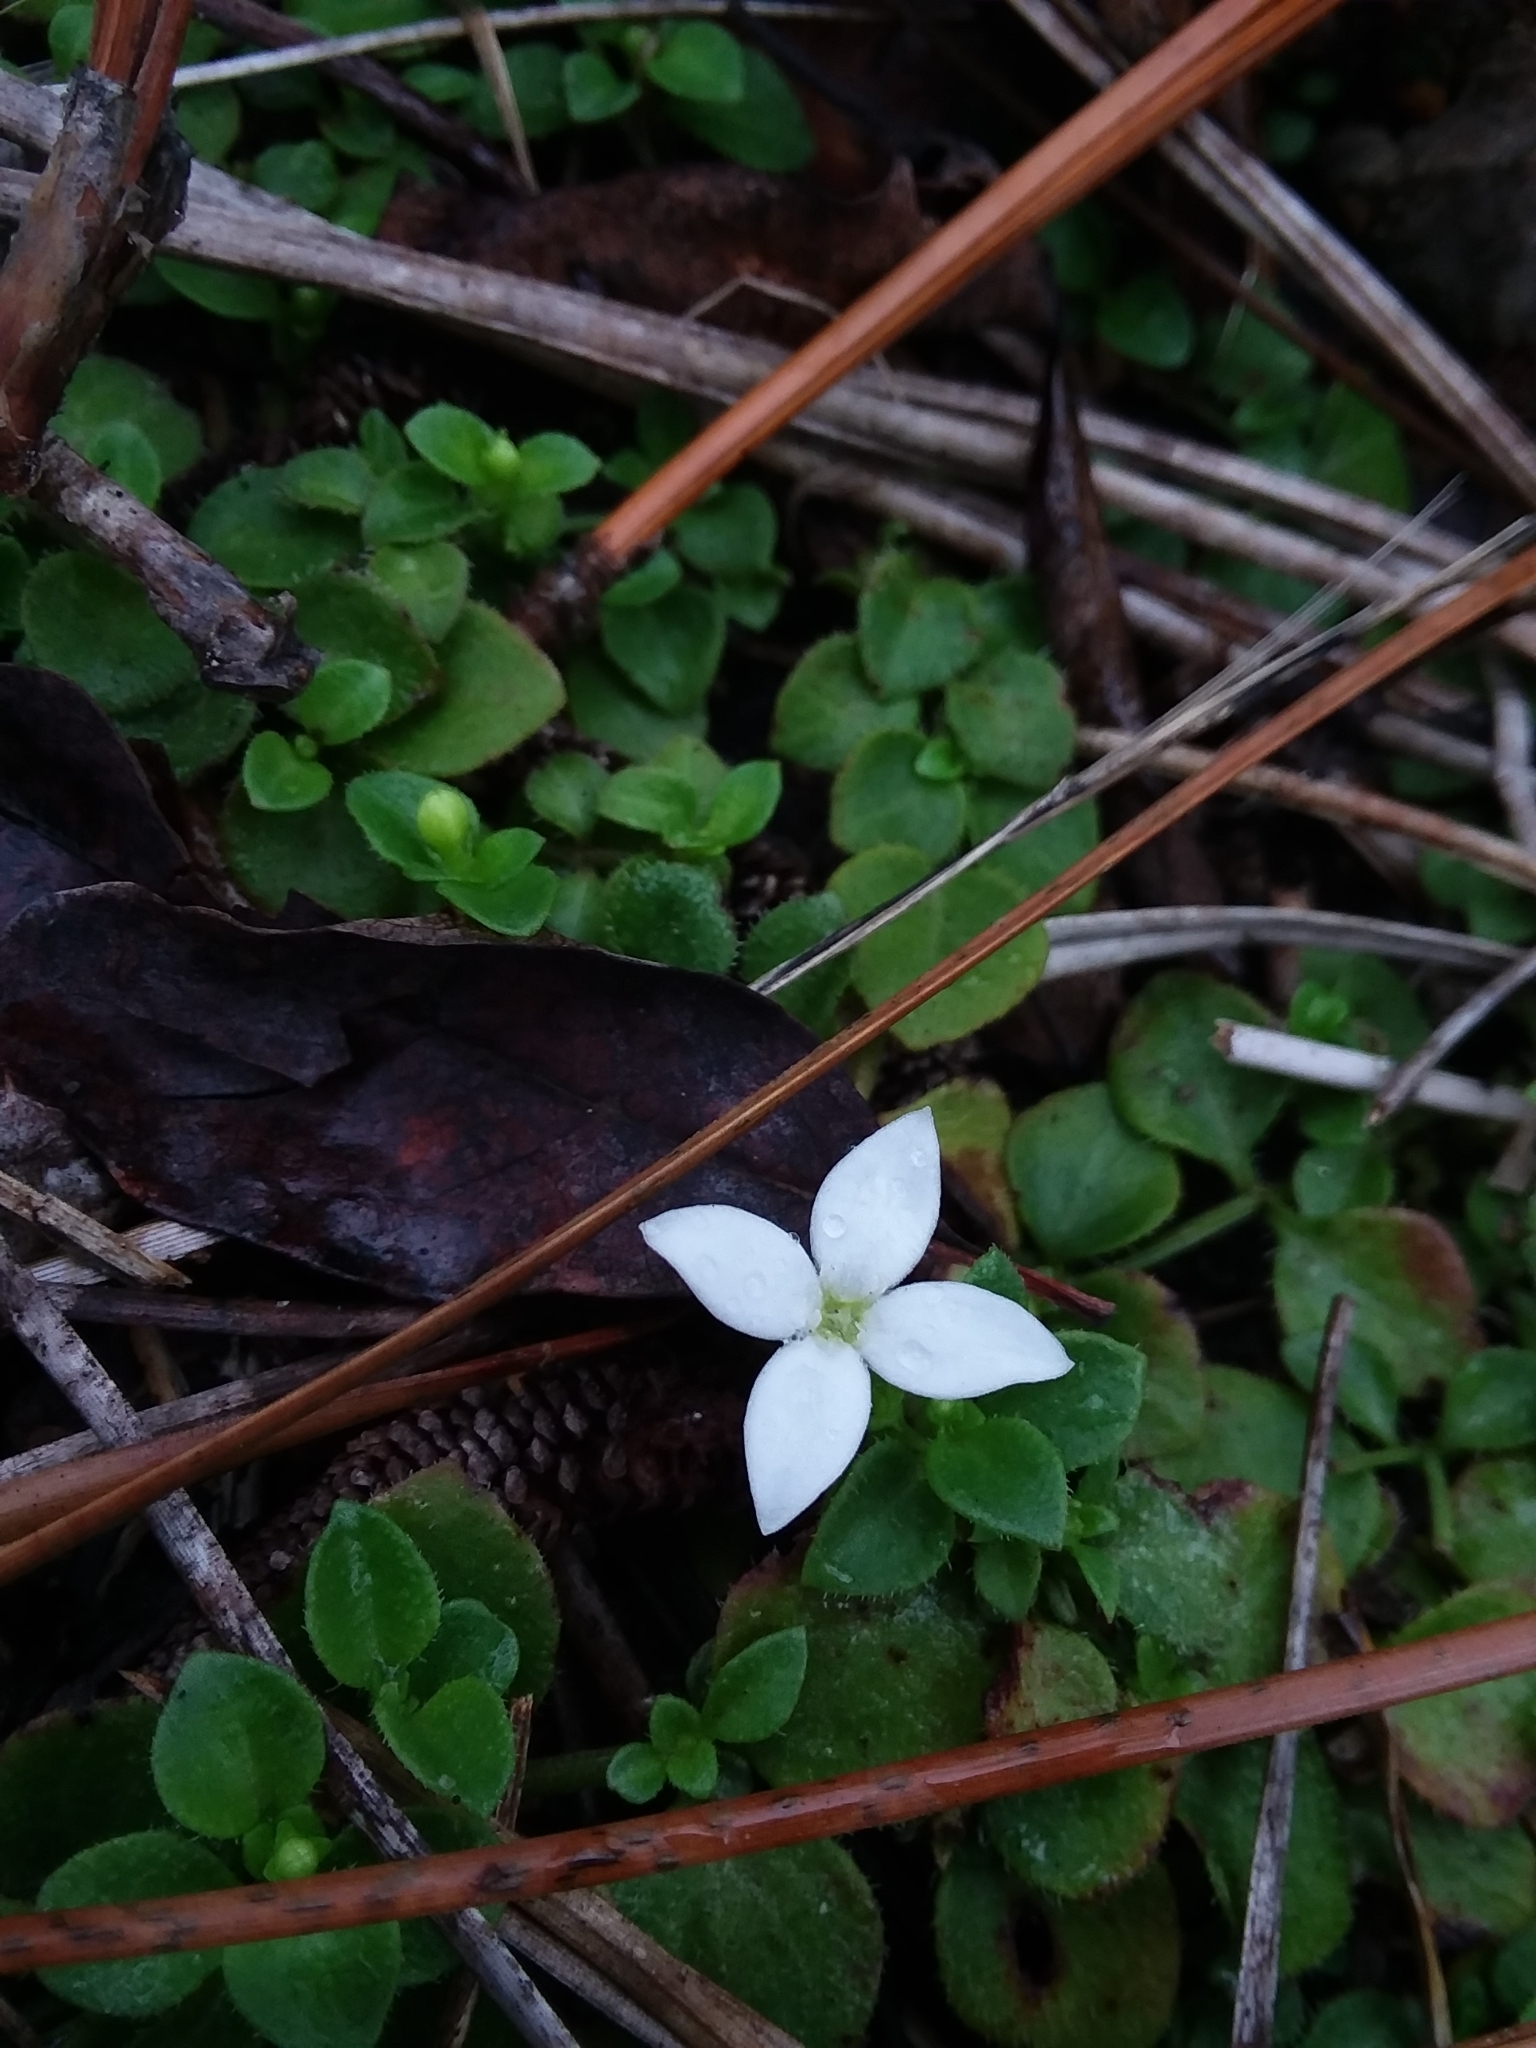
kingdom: Plantae
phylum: Tracheophyta
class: Magnoliopsida
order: Gentianales
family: Rubiaceae
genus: Houstonia
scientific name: Houstonia procumbens
